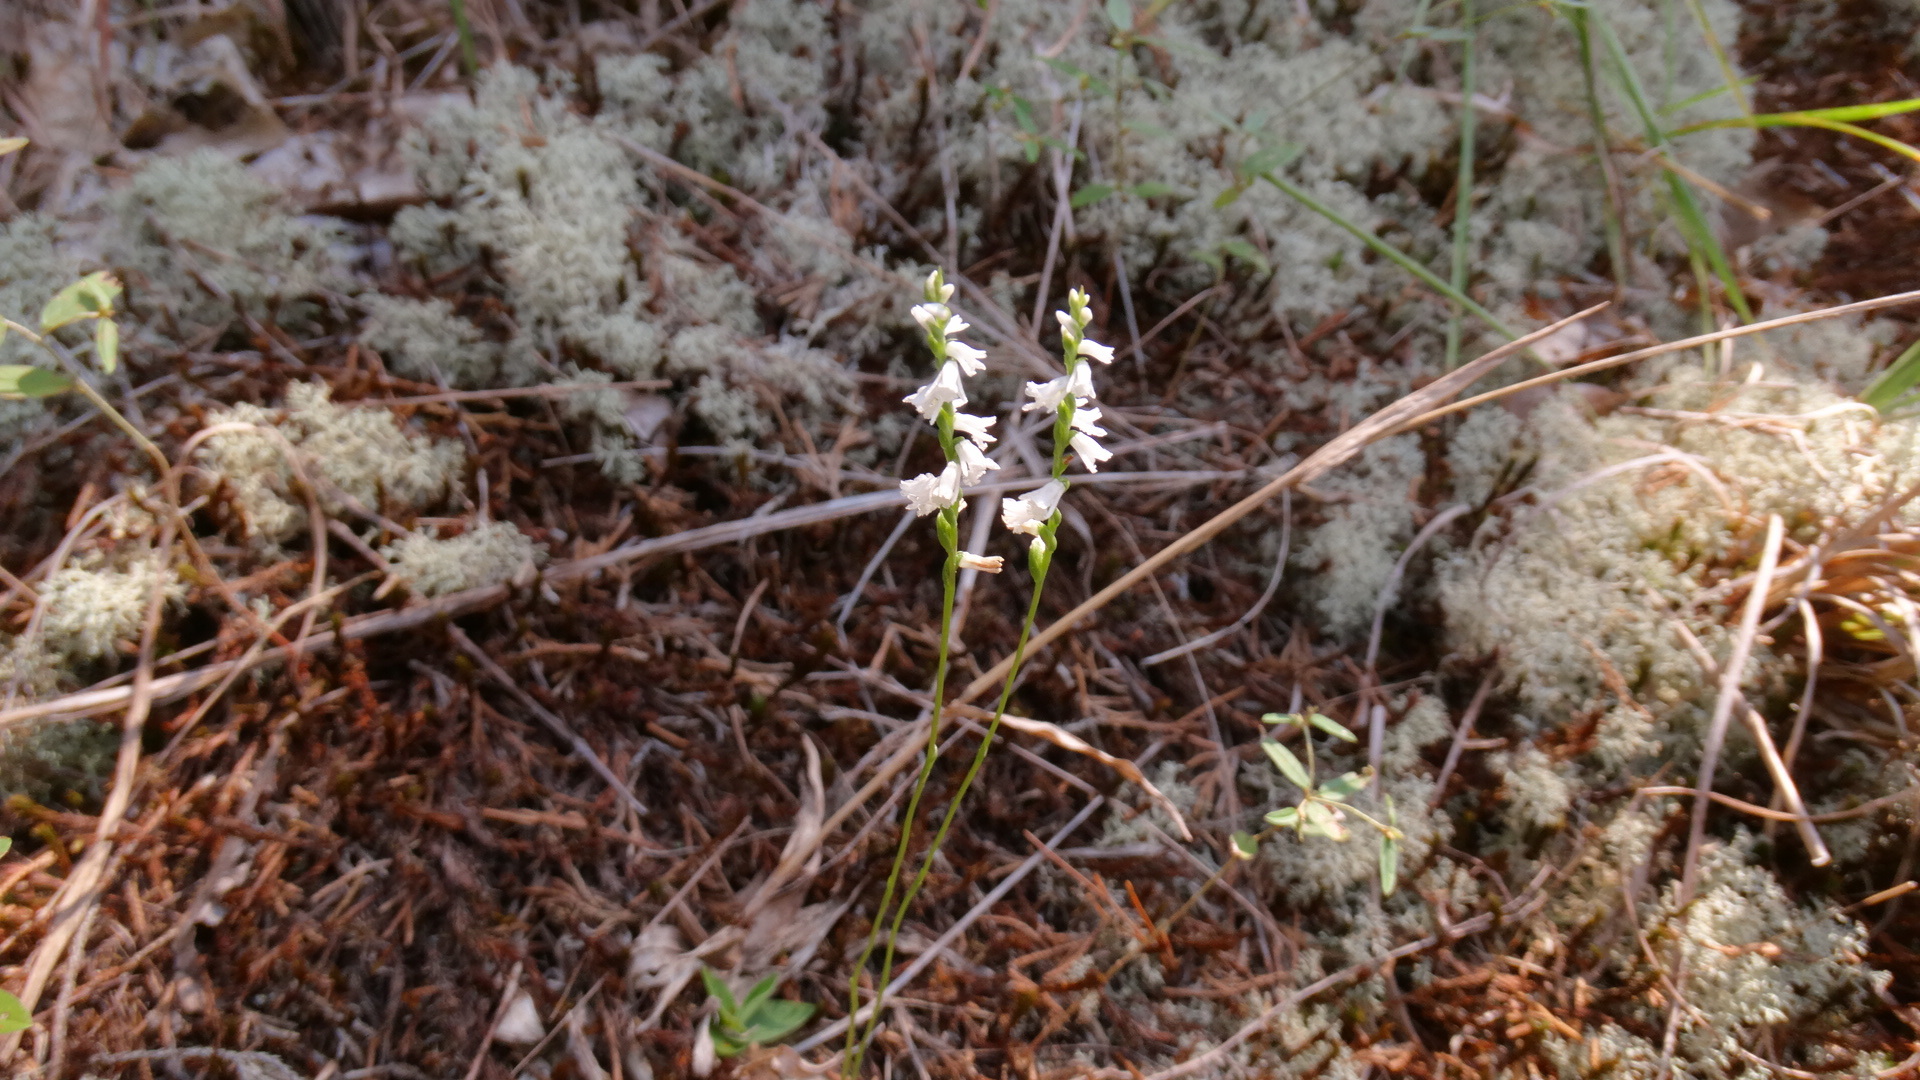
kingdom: Plantae
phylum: Tracheophyta
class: Liliopsida
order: Asparagales
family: Orchidaceae
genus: Spiranthes
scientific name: Spiranthes tuberosa
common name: Little ladies'-tresses
